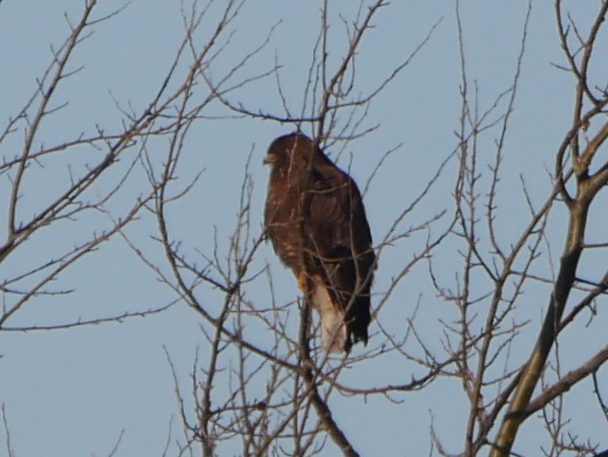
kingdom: Animalia
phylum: Chordata
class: Aves
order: Accipitriformes
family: Accipitridae
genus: Buteo
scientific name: Buteo buteo
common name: Common buzzard
